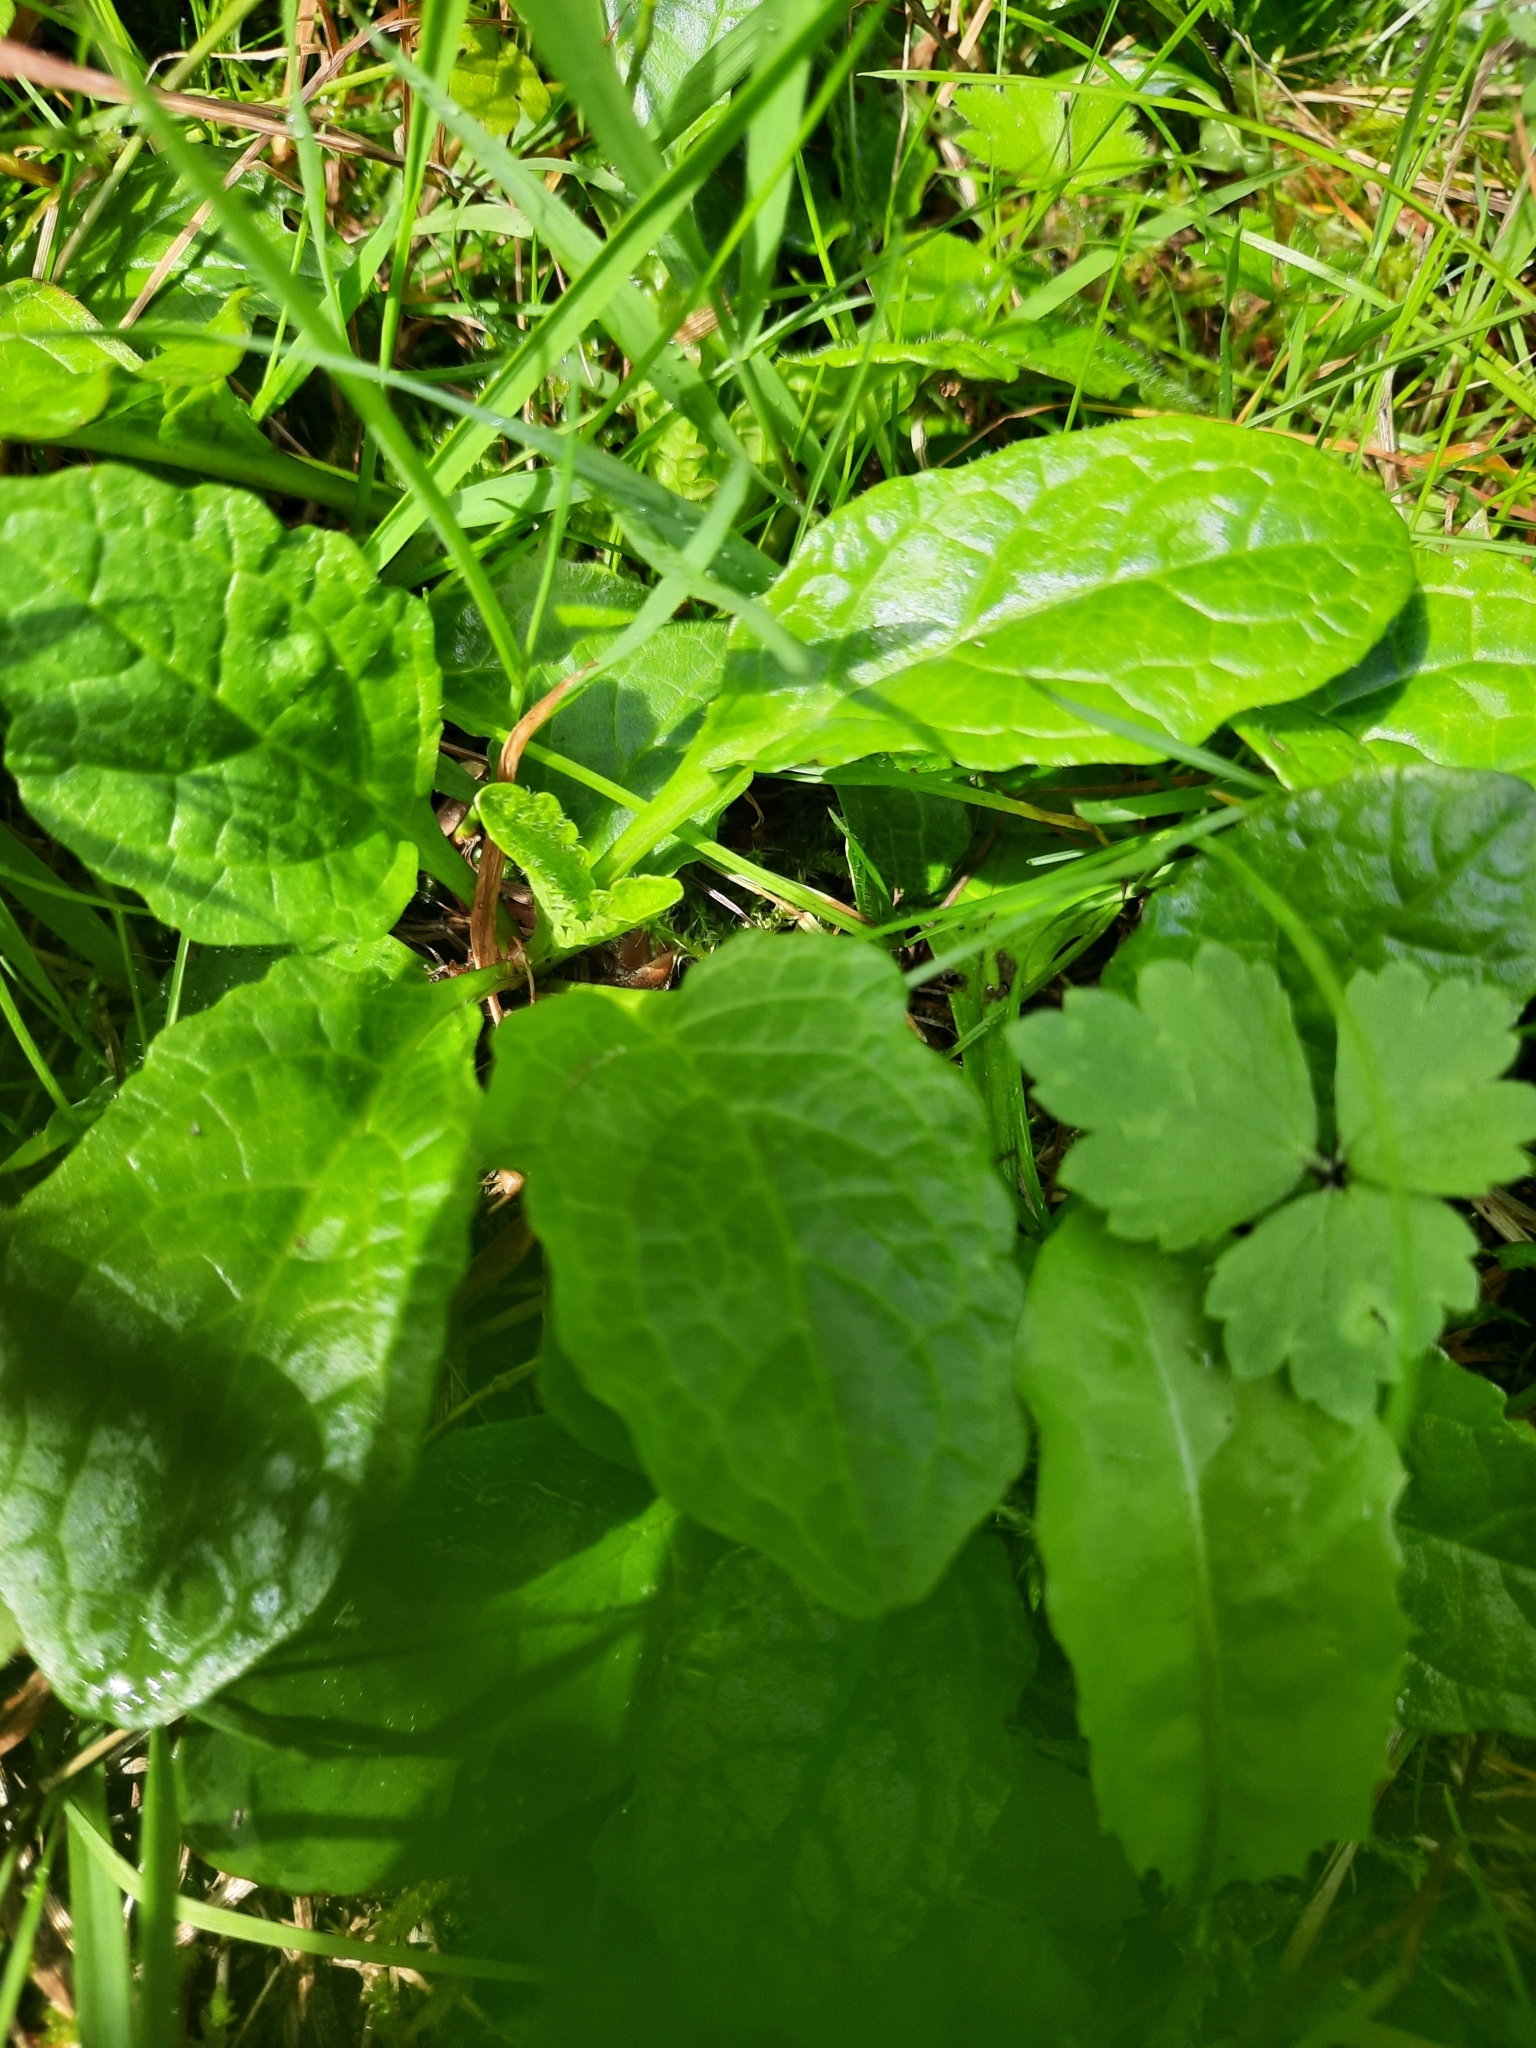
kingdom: Plantae
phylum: Tracheophyta
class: Magnoliopsida
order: Lamiales
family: Lamiaceae
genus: Ajuga
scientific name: Ajuga reptans
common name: Bugle
